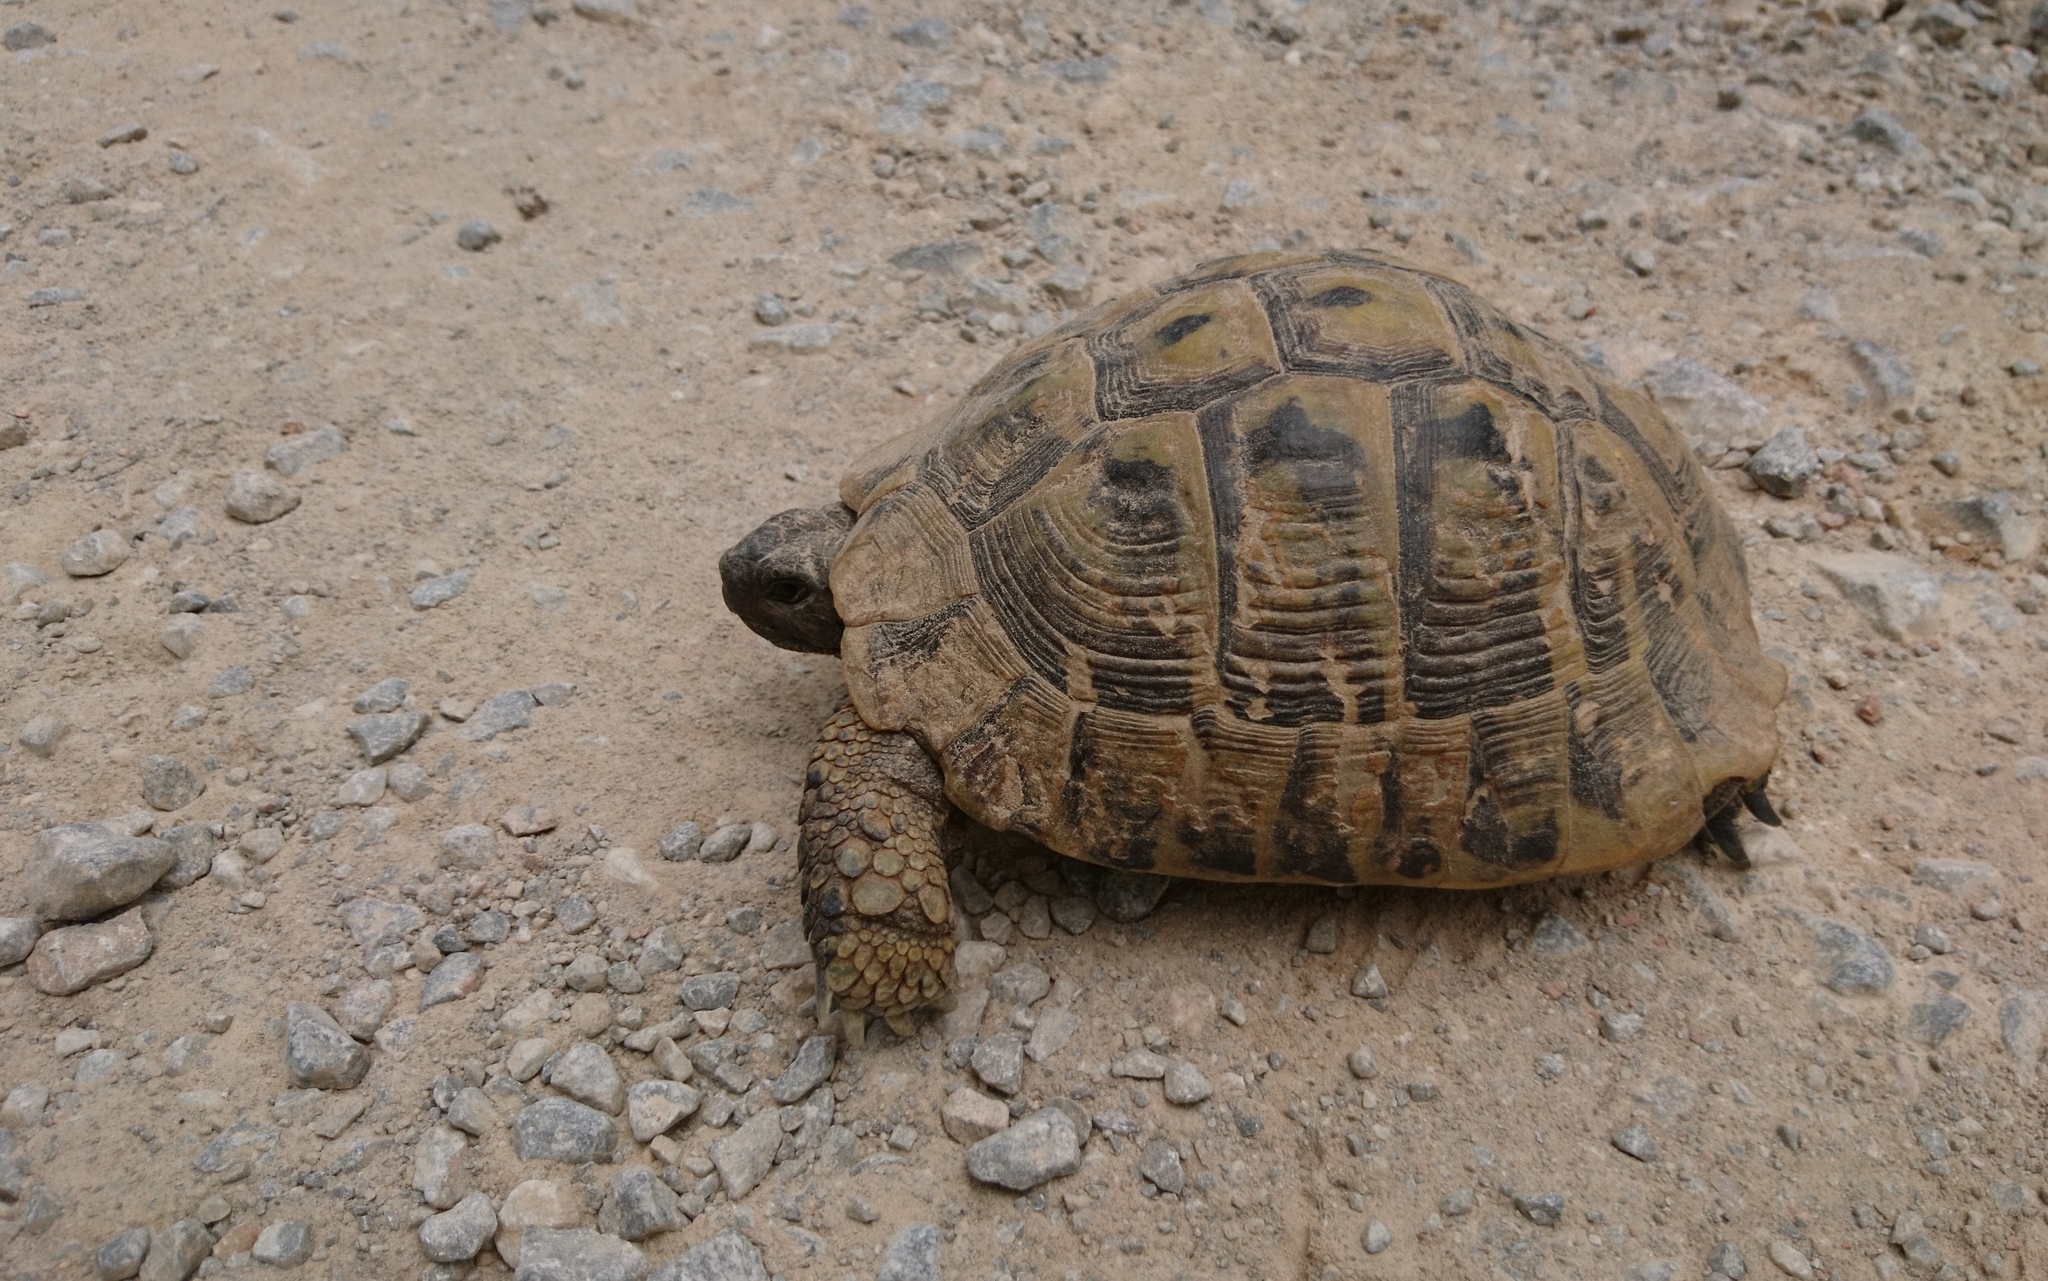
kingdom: Animalia
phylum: Chordata
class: Testudines
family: Testudinidae
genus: Testudo
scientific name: Testudo hermanni
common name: Hermann's tortoise
